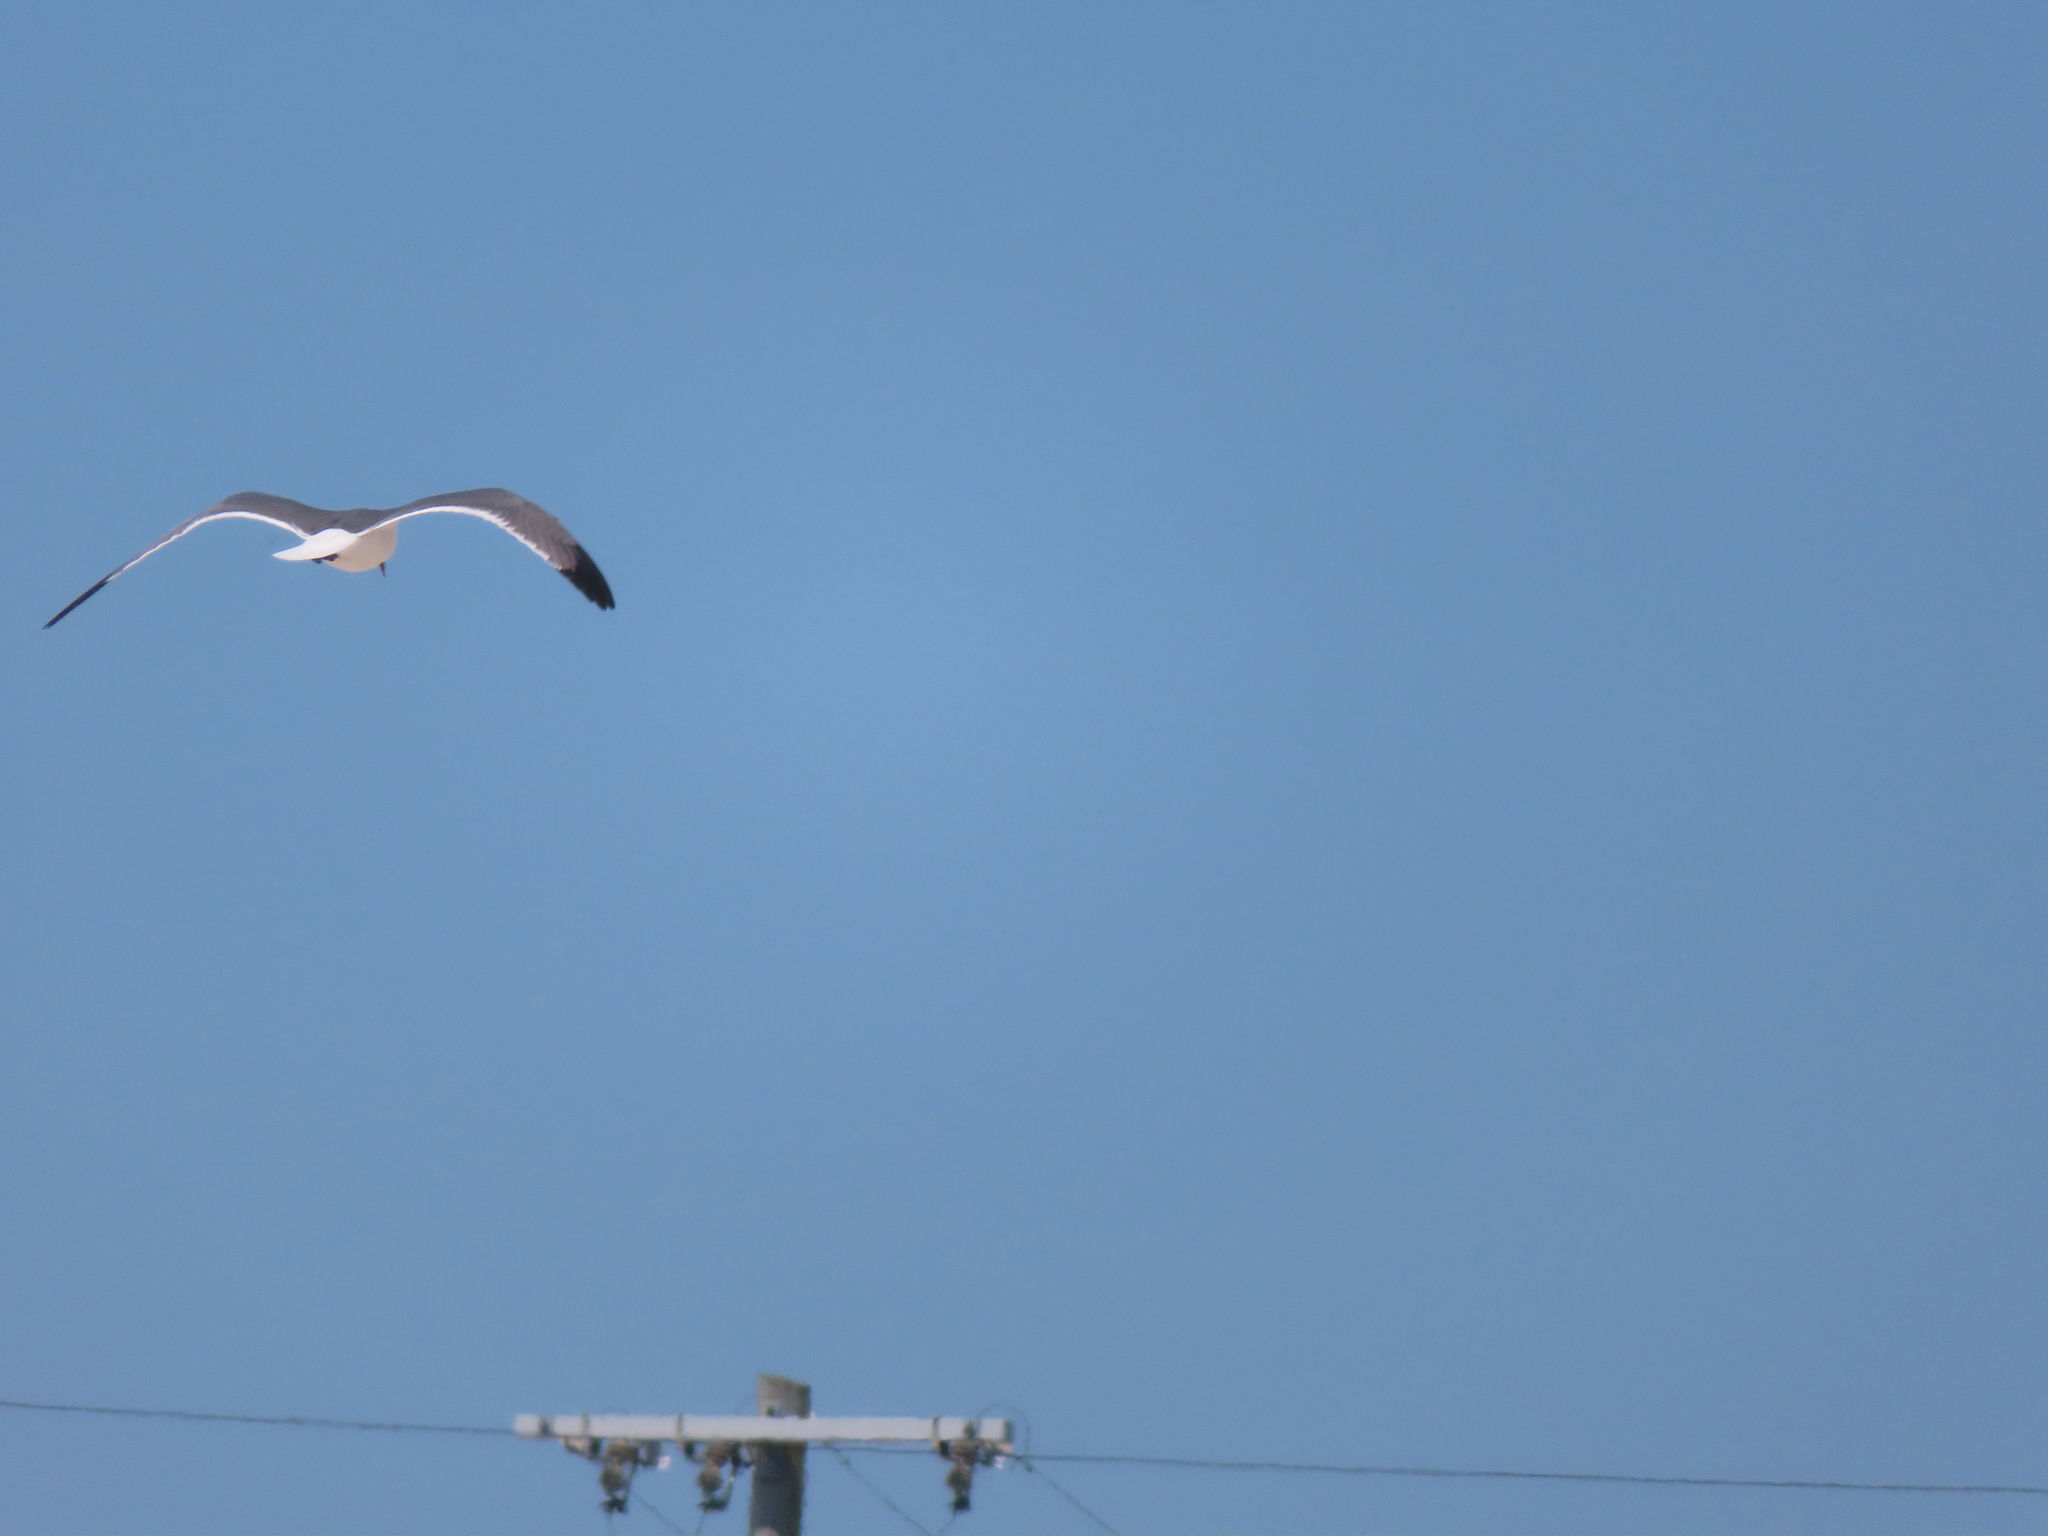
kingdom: Animalia
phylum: Chordata
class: Aves
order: Charadriiformes
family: Laridae
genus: Leucophaeus
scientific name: Leucophaeus atricilla
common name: Laughing gull
